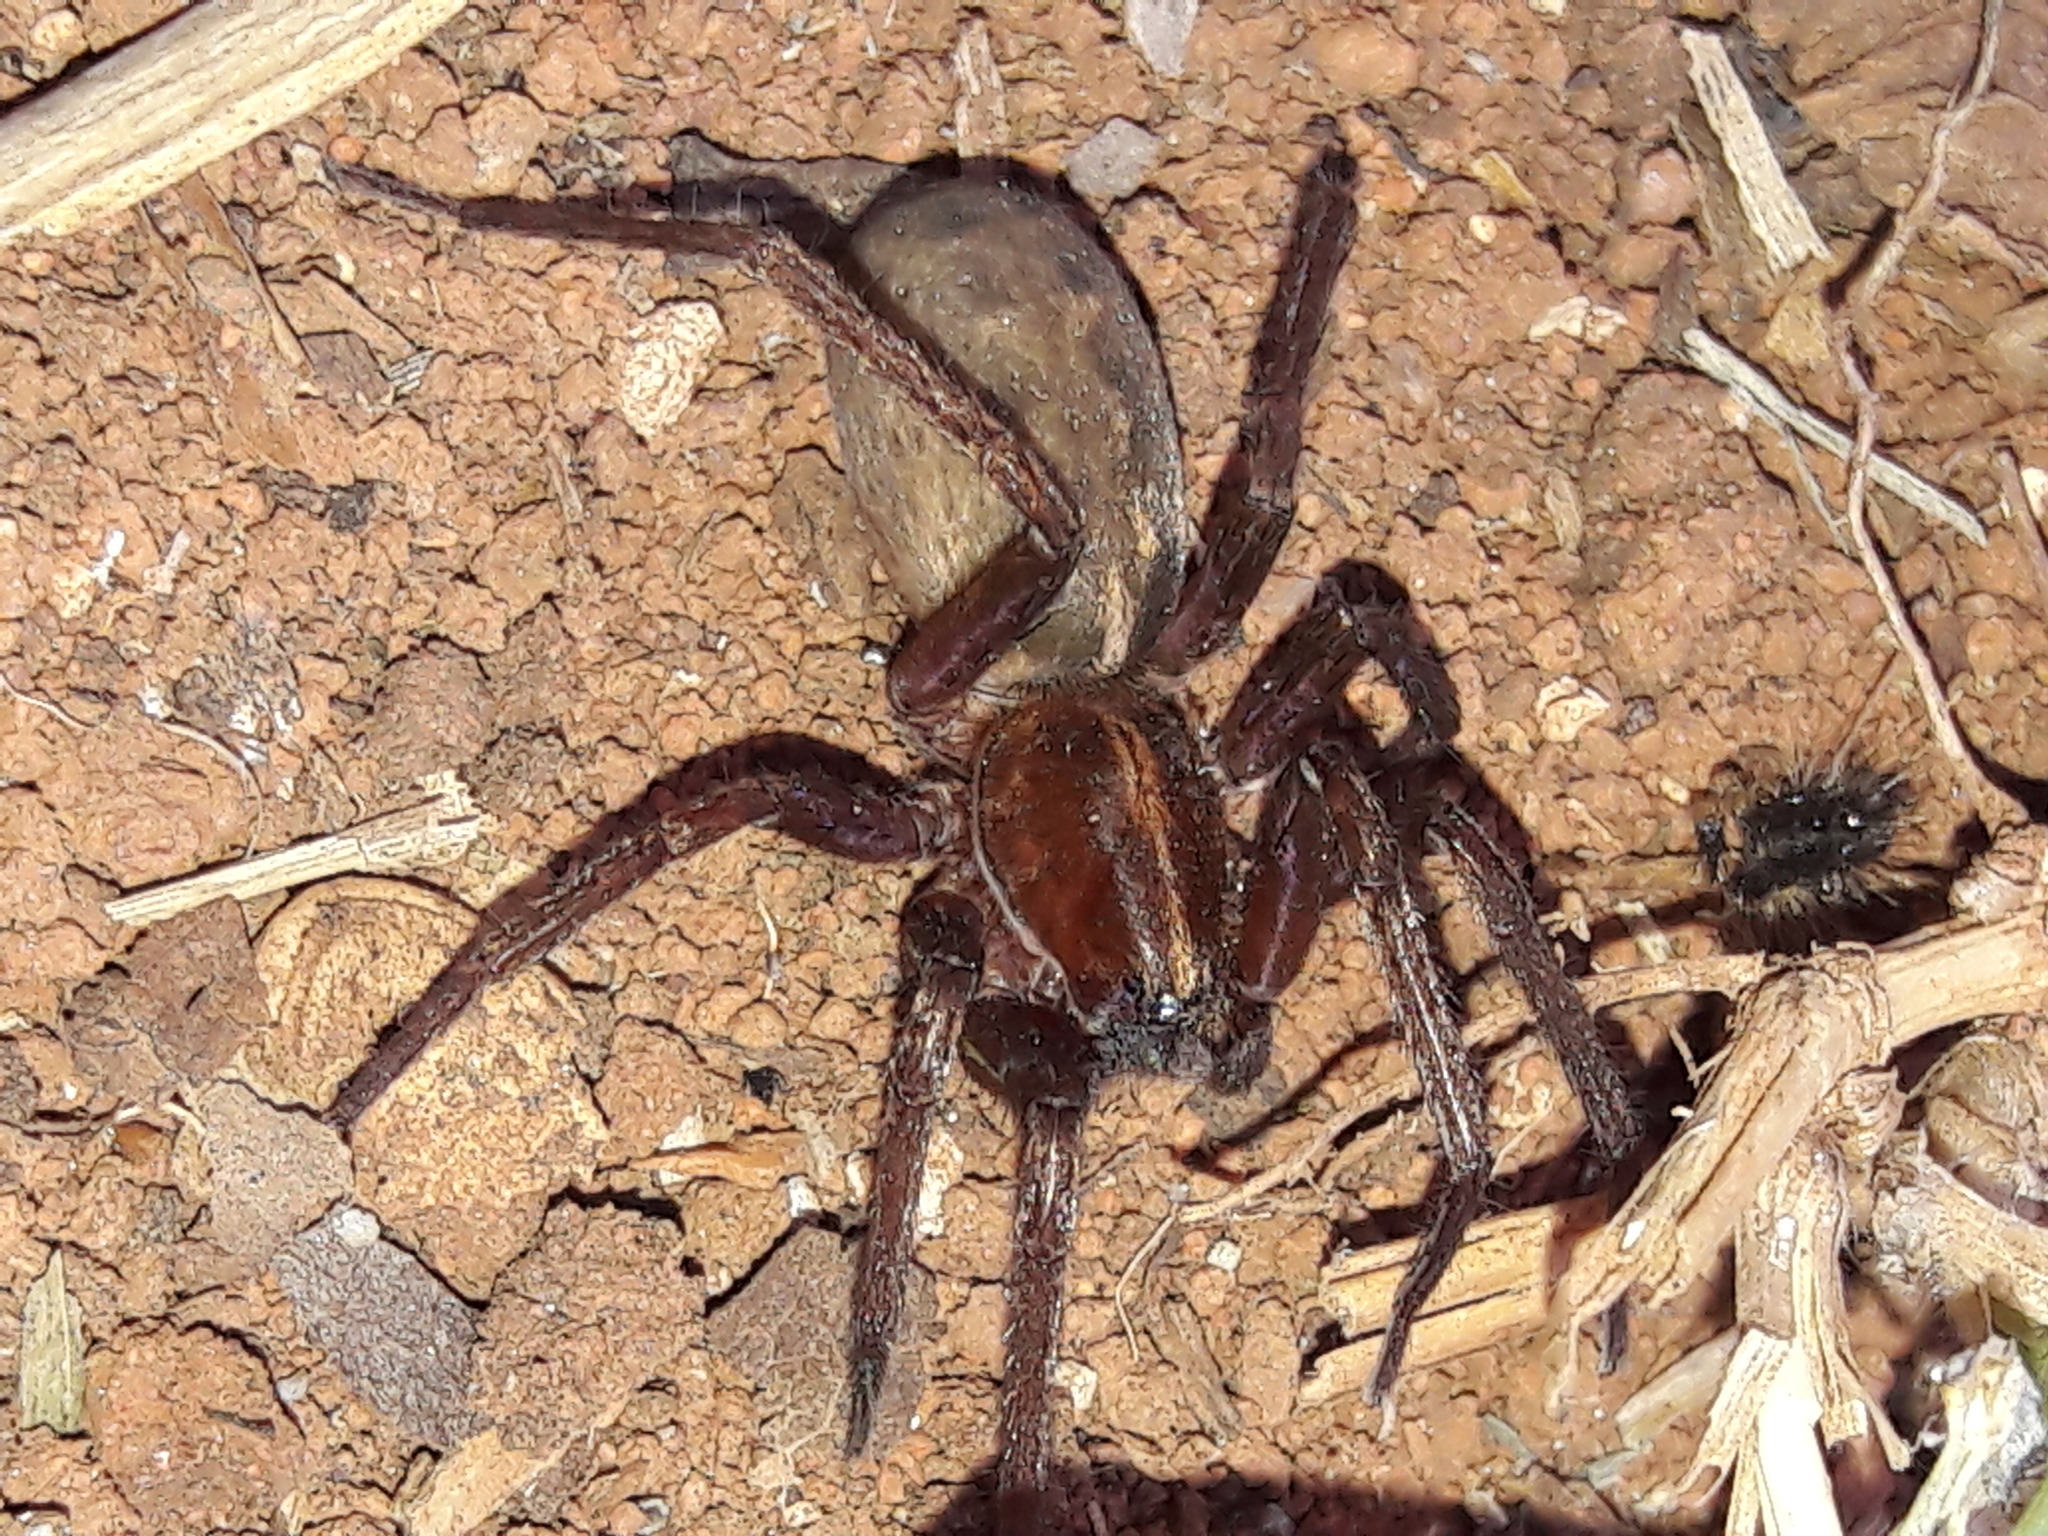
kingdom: Animalia
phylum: Arthropoda
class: Arachnida
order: Araneae
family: Ctenidae
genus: Isoctenus
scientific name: Isoctenus coxalis
